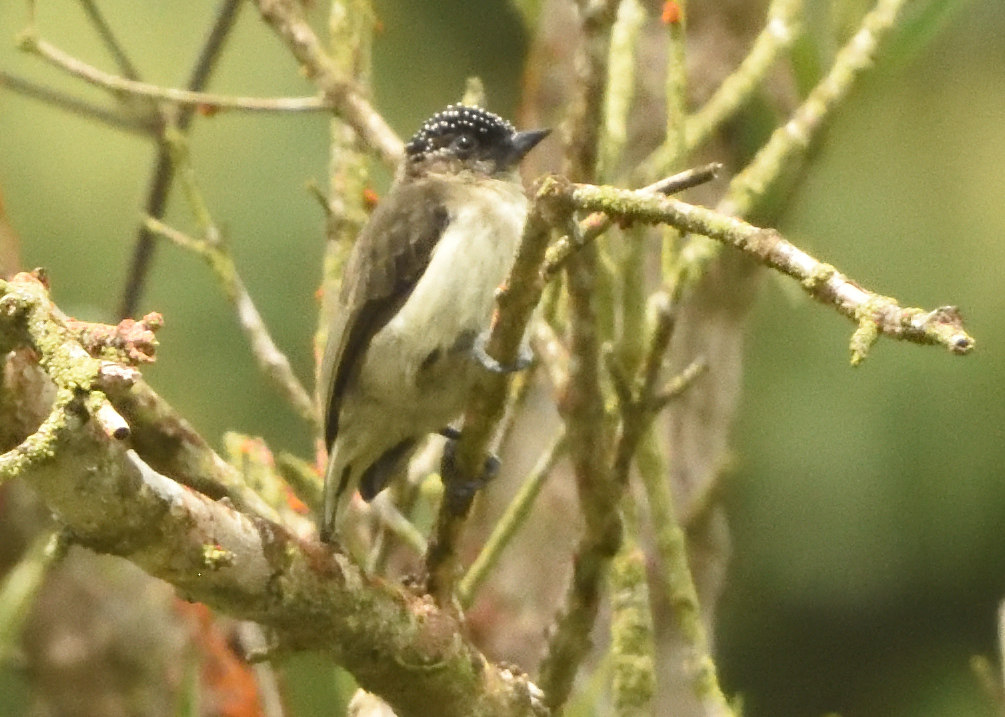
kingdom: Animalia
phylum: Chordata
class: Aves
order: Piciformes
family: Picidae
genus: Picumnus
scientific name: Picumnus granadensis
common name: Greyish piculet
